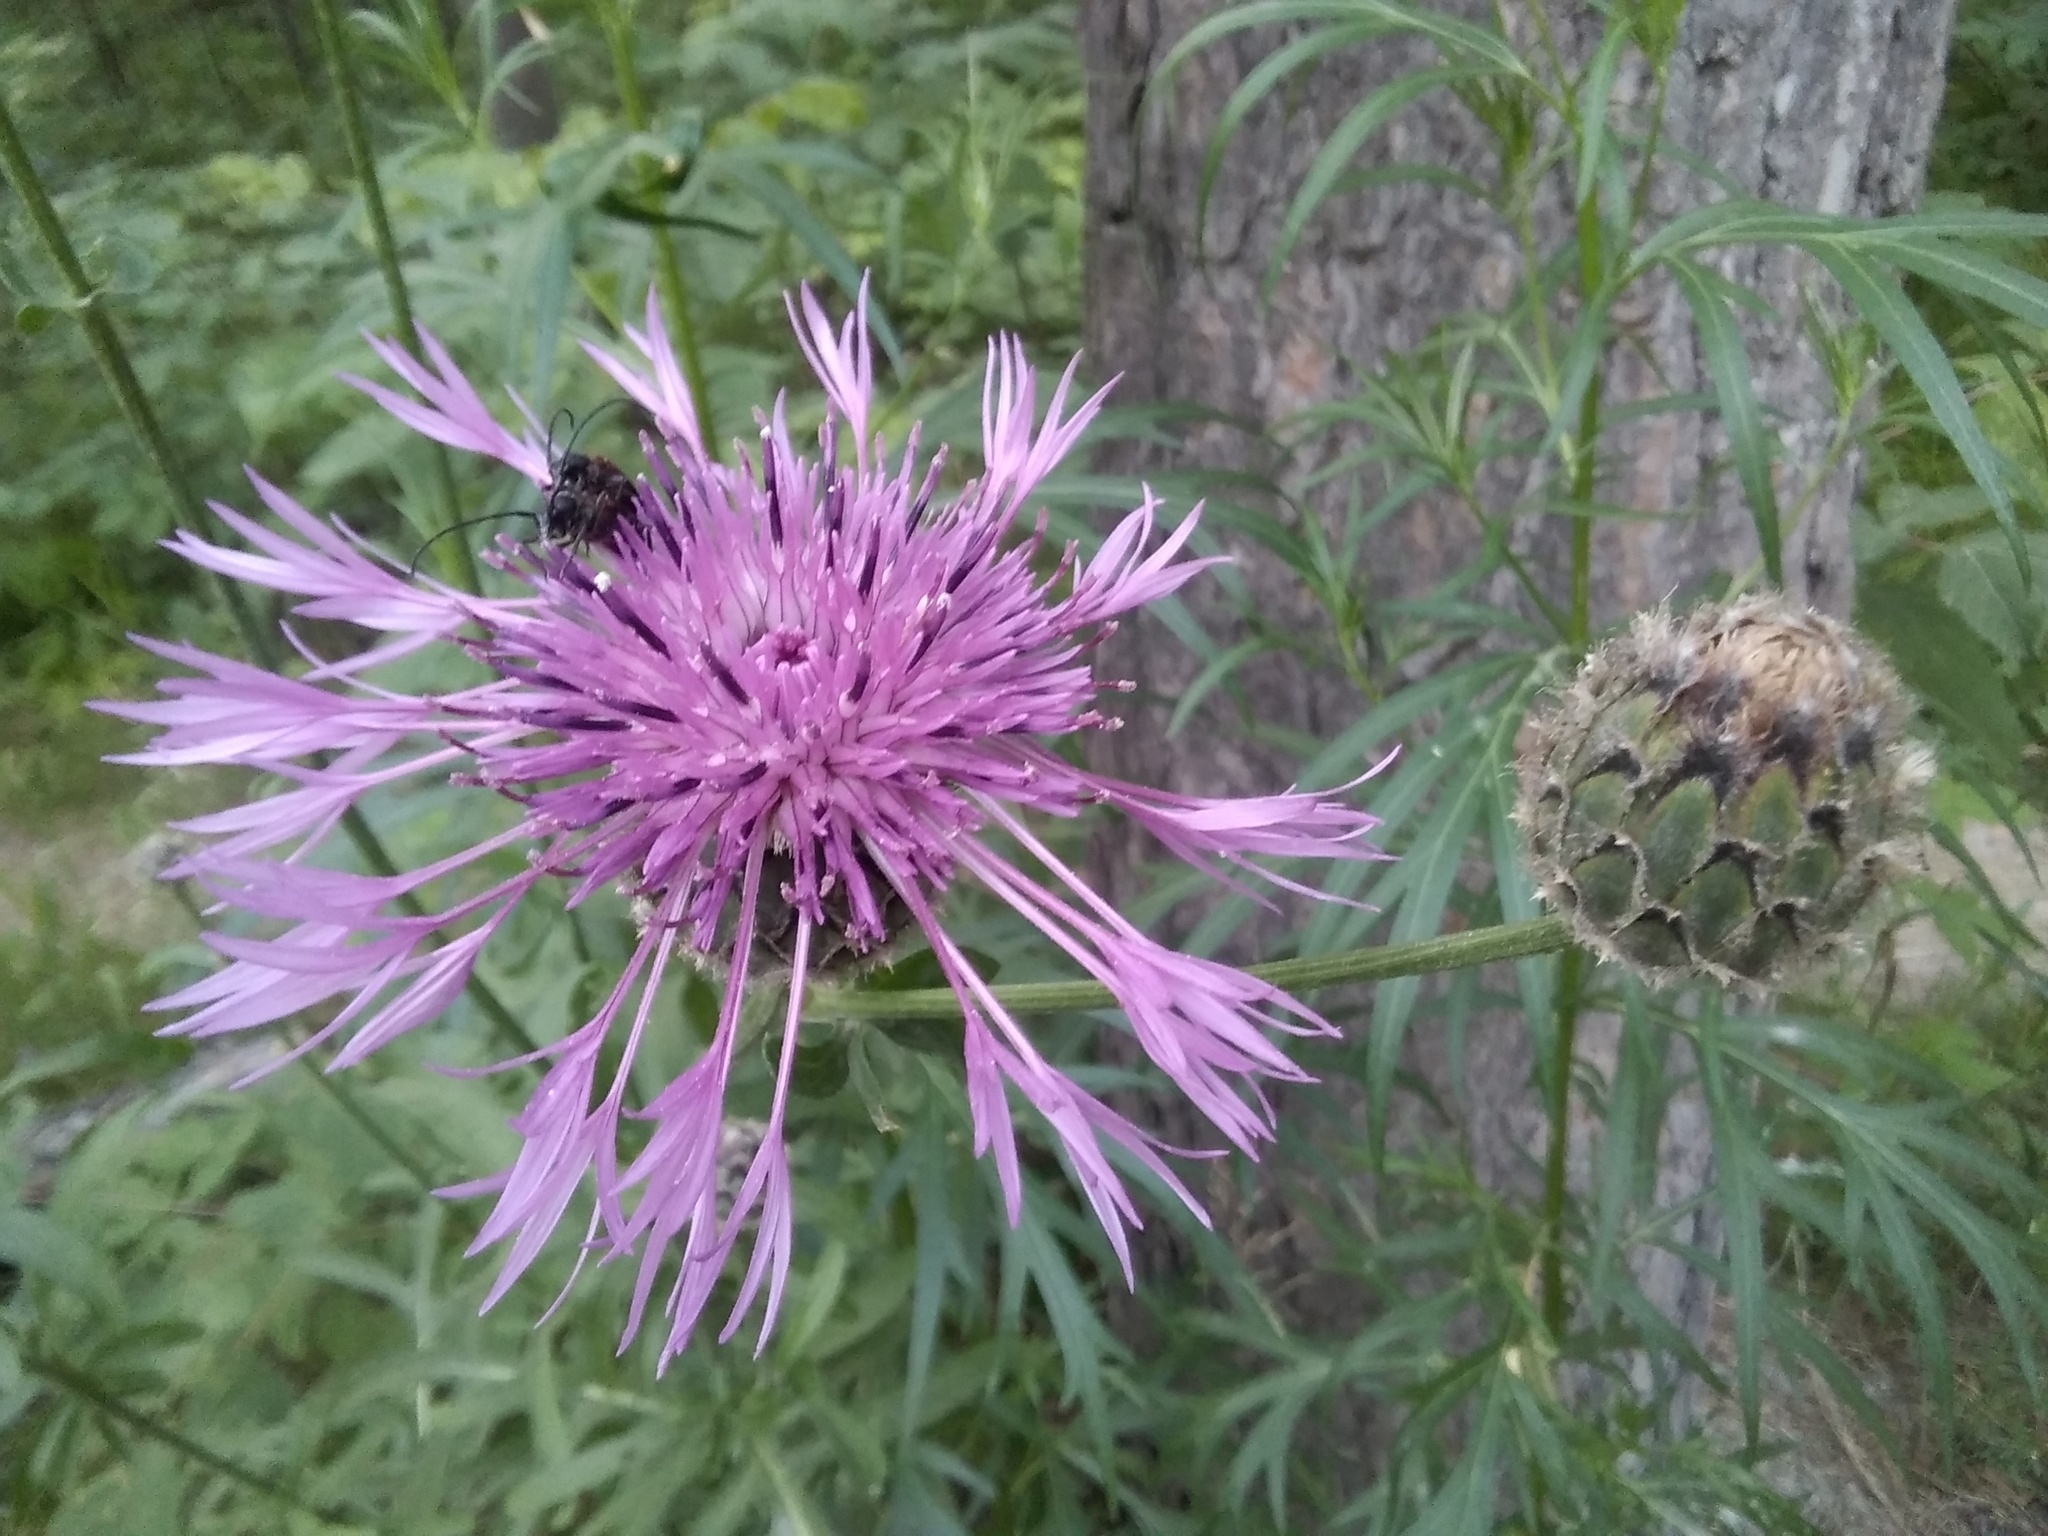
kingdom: Plantae
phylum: Tracheophyta
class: Magnoliopsida
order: Asterales
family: Asteraceae
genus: Centaurea
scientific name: Centaurea scabiosa
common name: Greater knapweed
